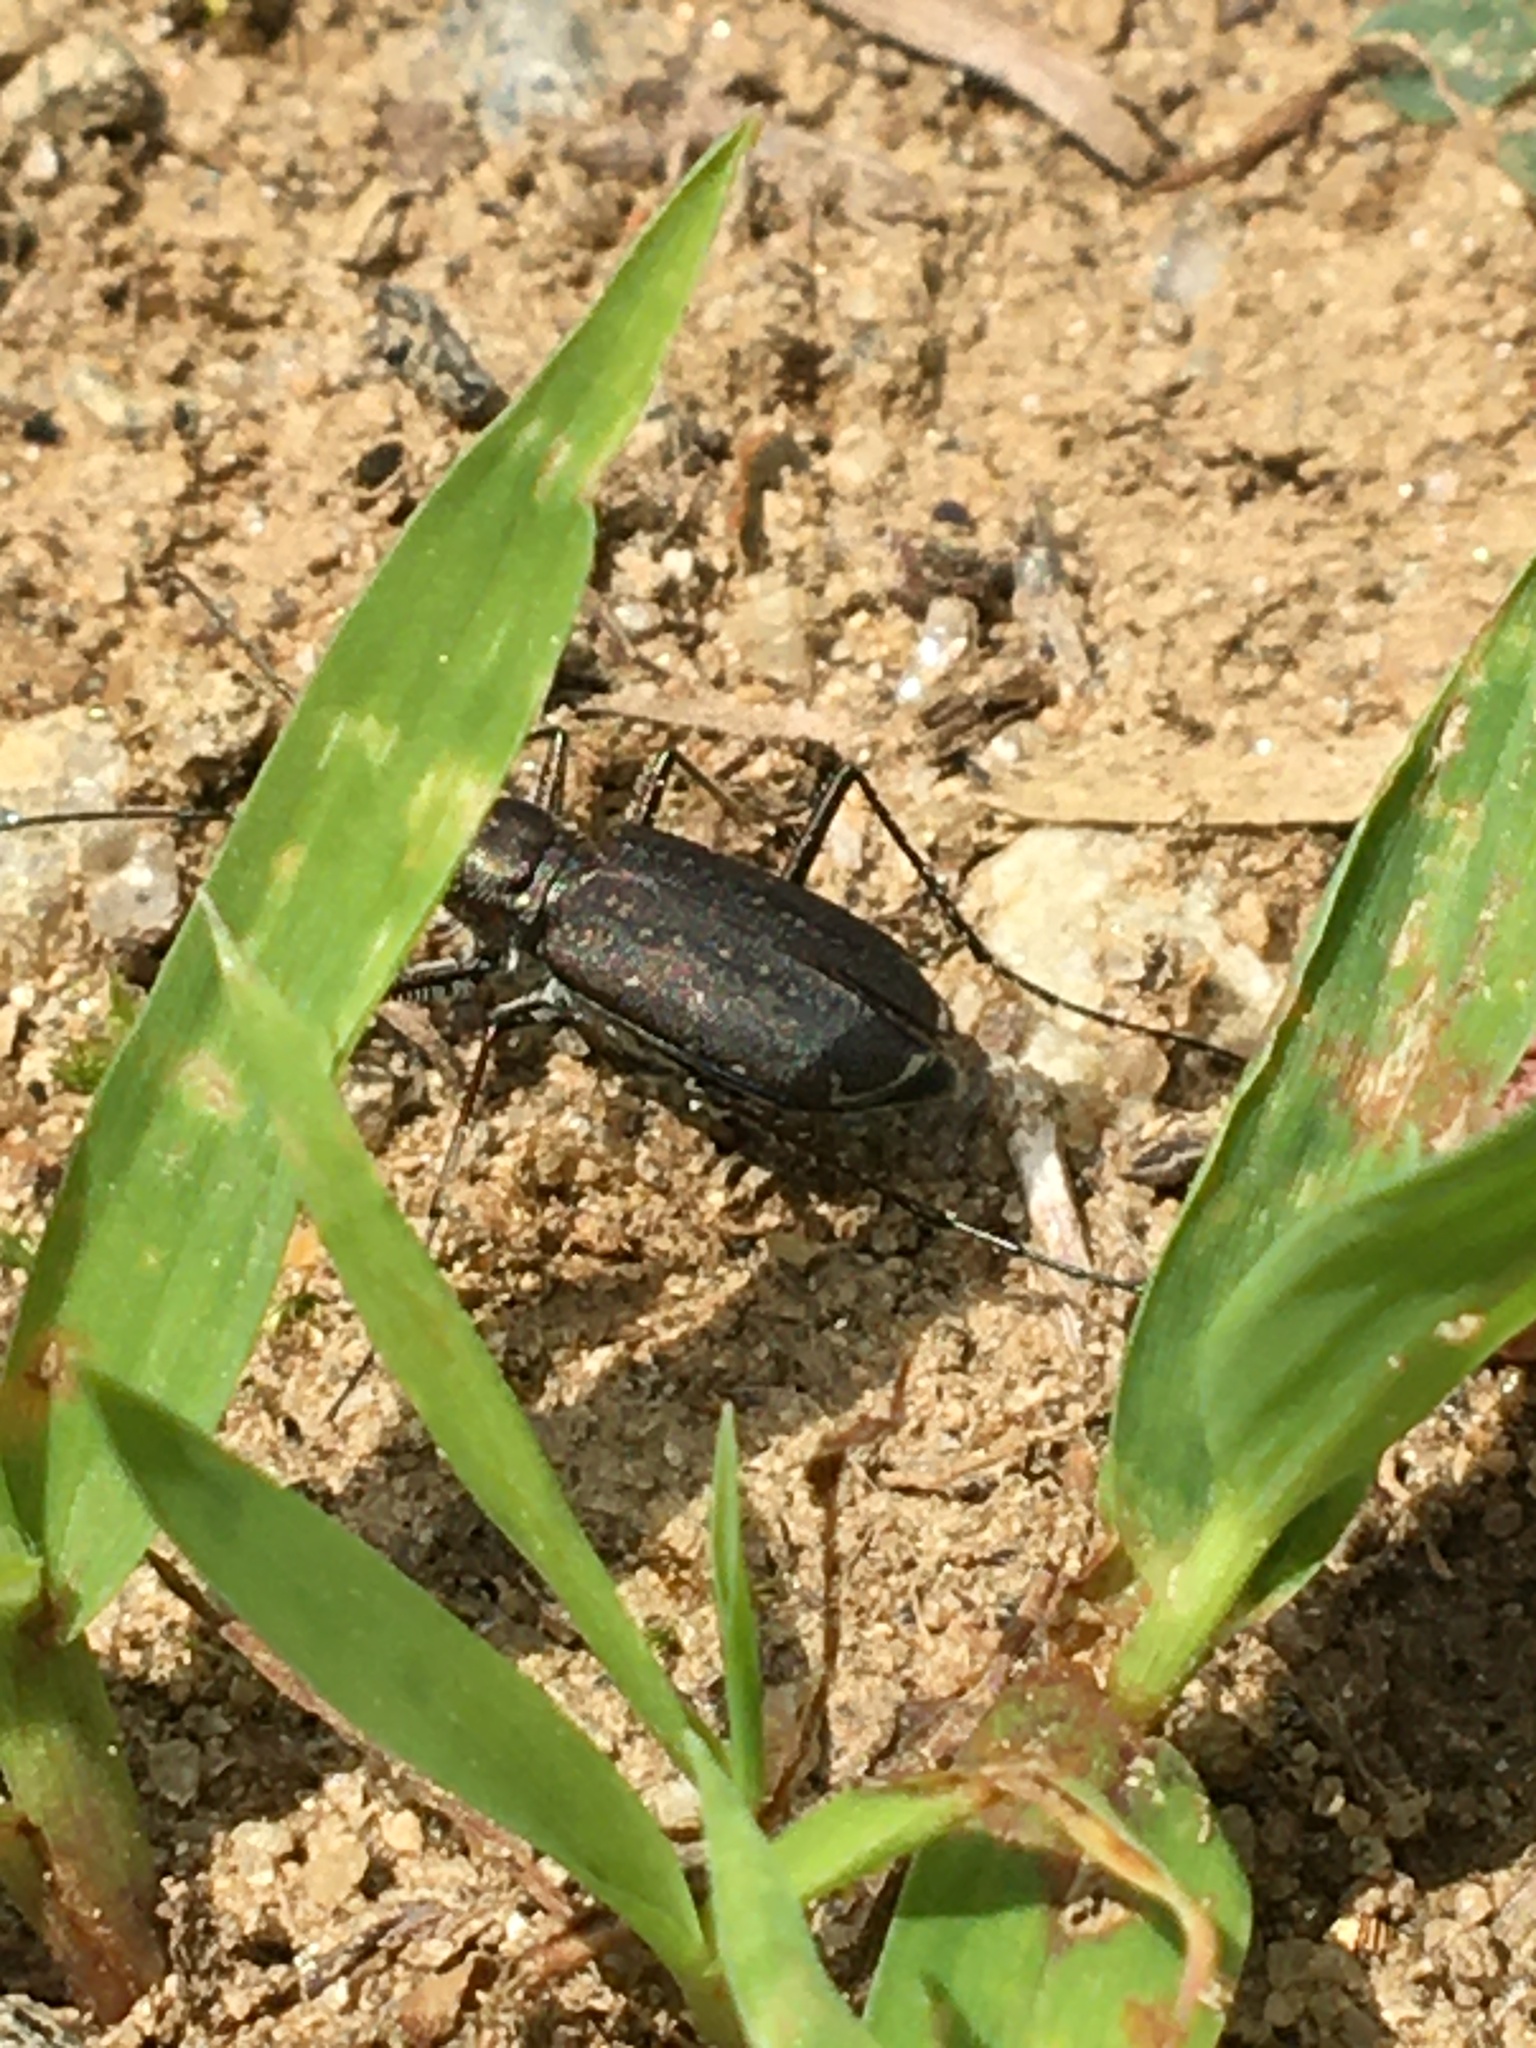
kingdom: Animalia
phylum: Arthropoda
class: Insecta
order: Coleoptera
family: Carabidae
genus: Cicindela
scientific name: Cicindela punctulata
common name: Punctured tiger beetle
